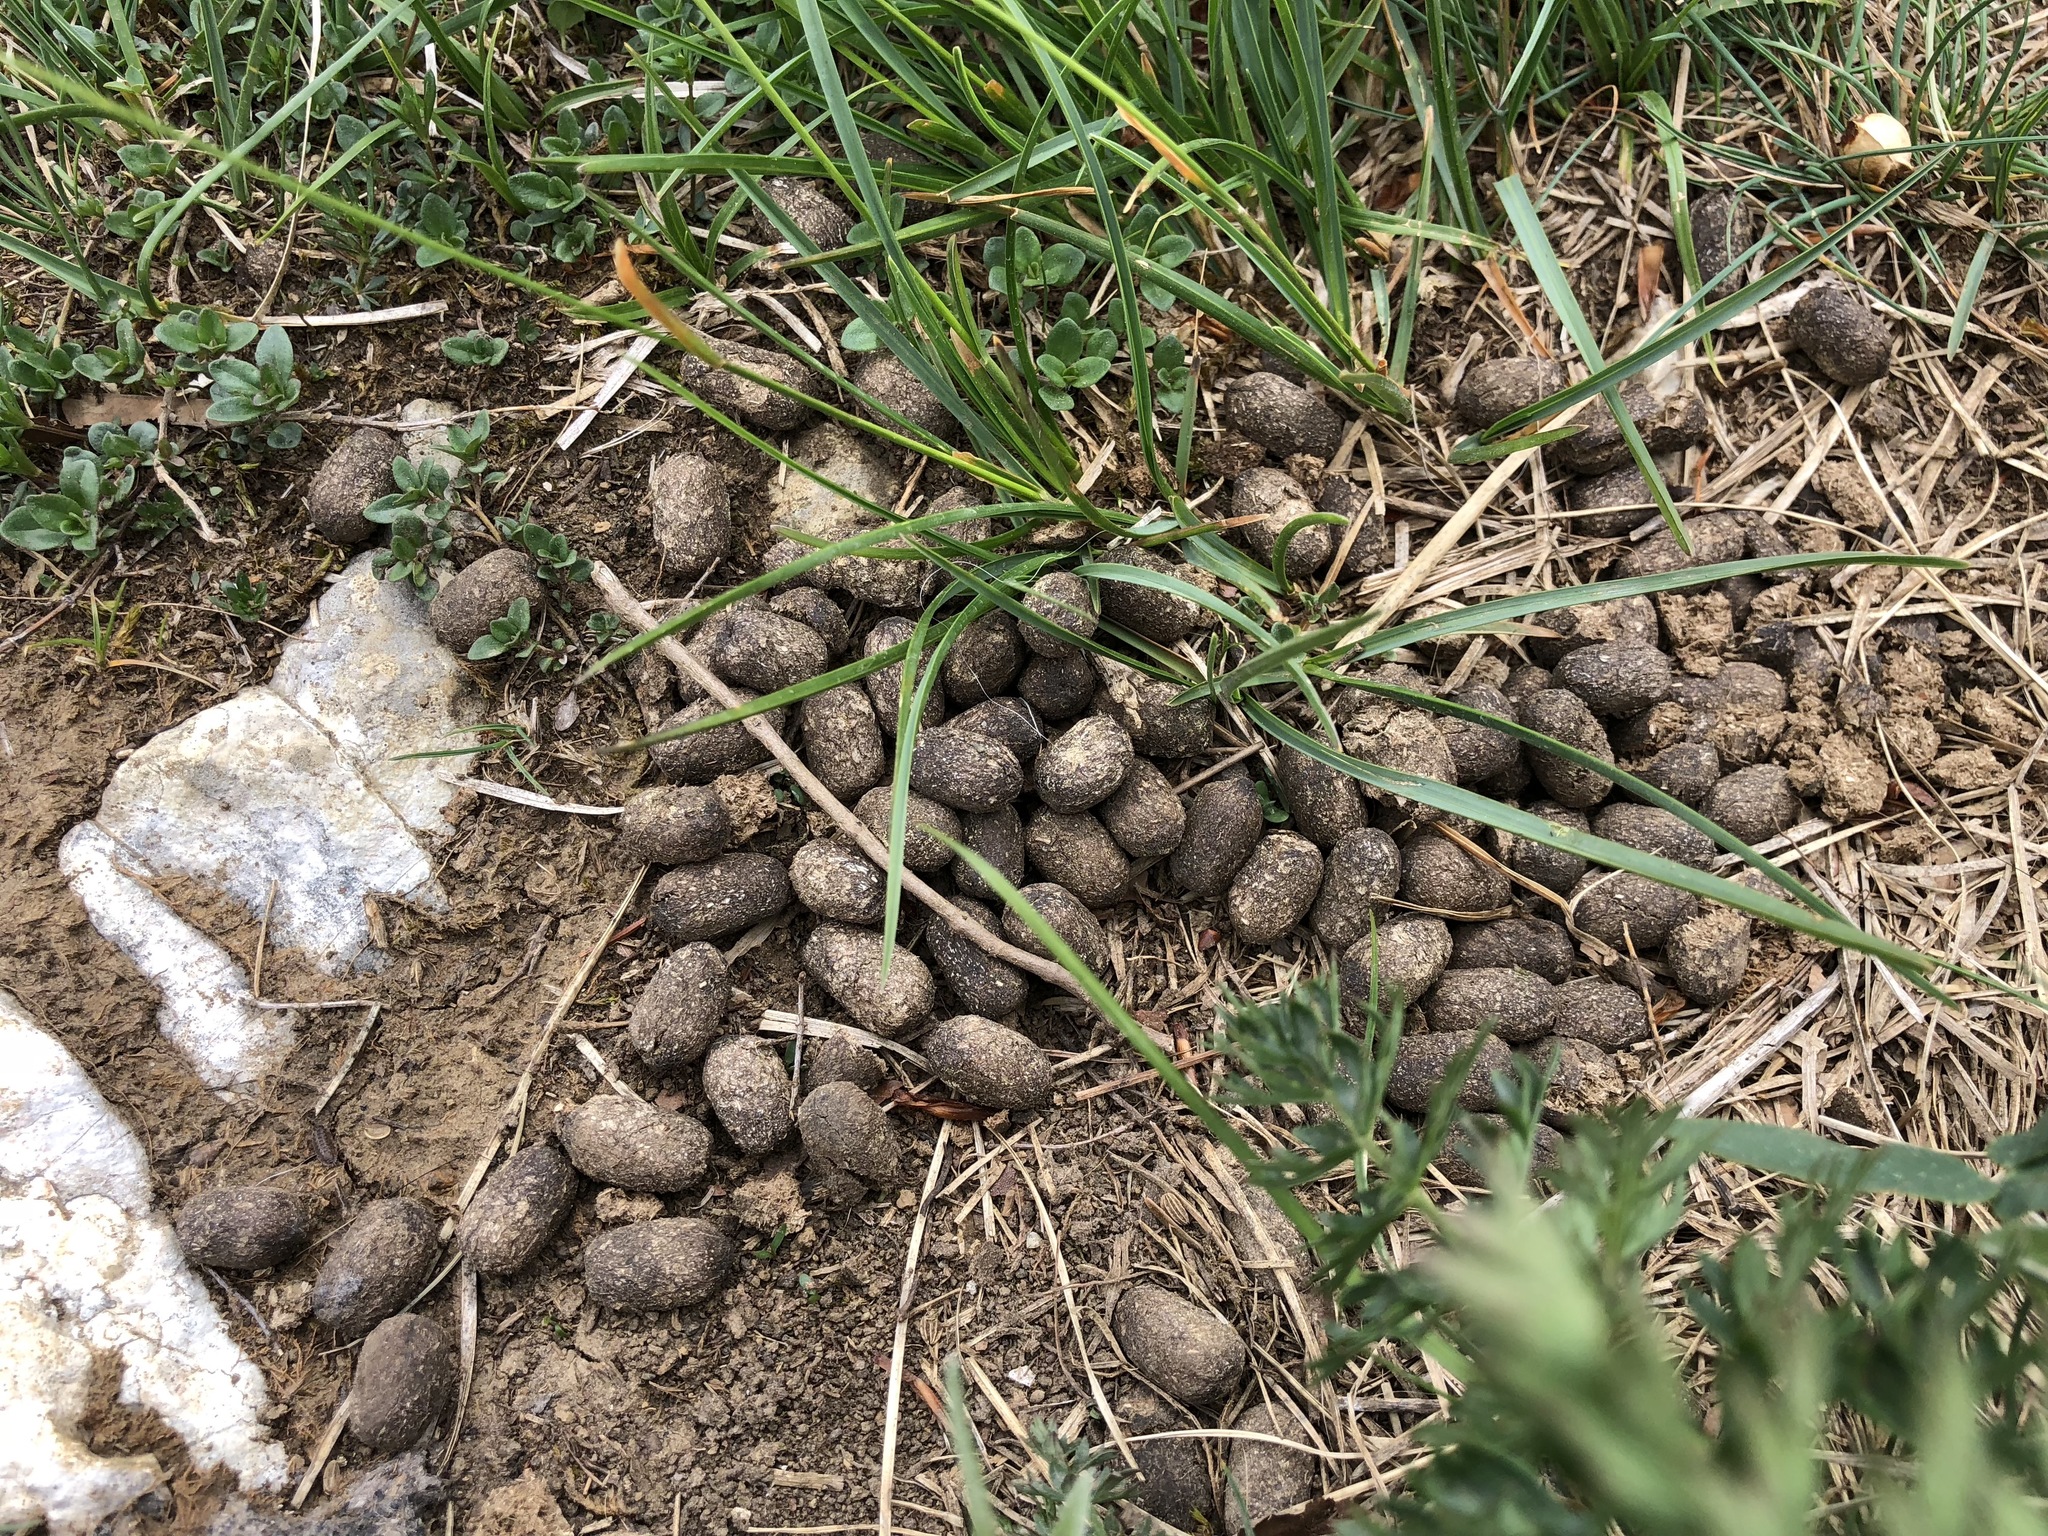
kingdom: Animalia
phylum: Chordata
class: Mammalia
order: Artiodactyla
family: Bovidae
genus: Capra
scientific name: Capra ibex
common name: Alpine ibex
